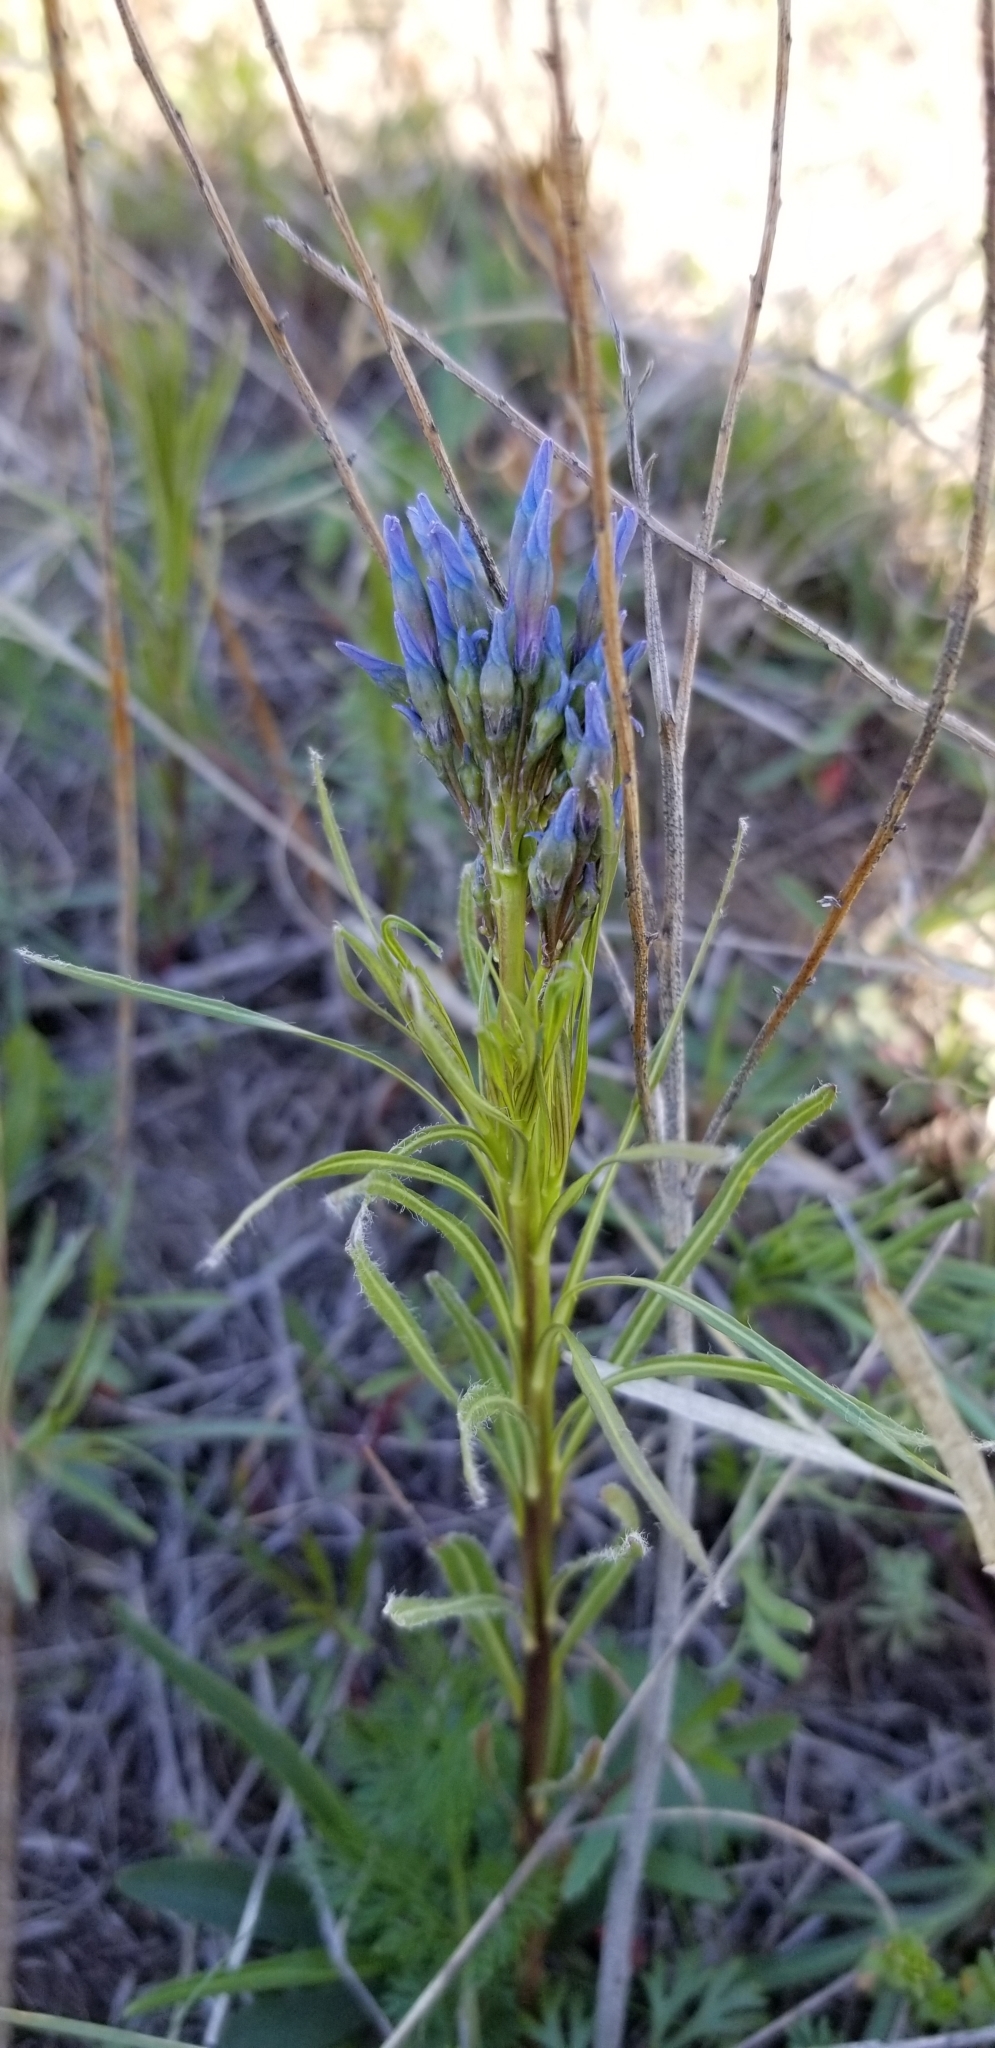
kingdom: Plantae
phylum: Tracheophyta
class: Magnoliopsida
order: Gentianales
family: Apocynaceae
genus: Amsonia
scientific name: Amsonia ciliata
